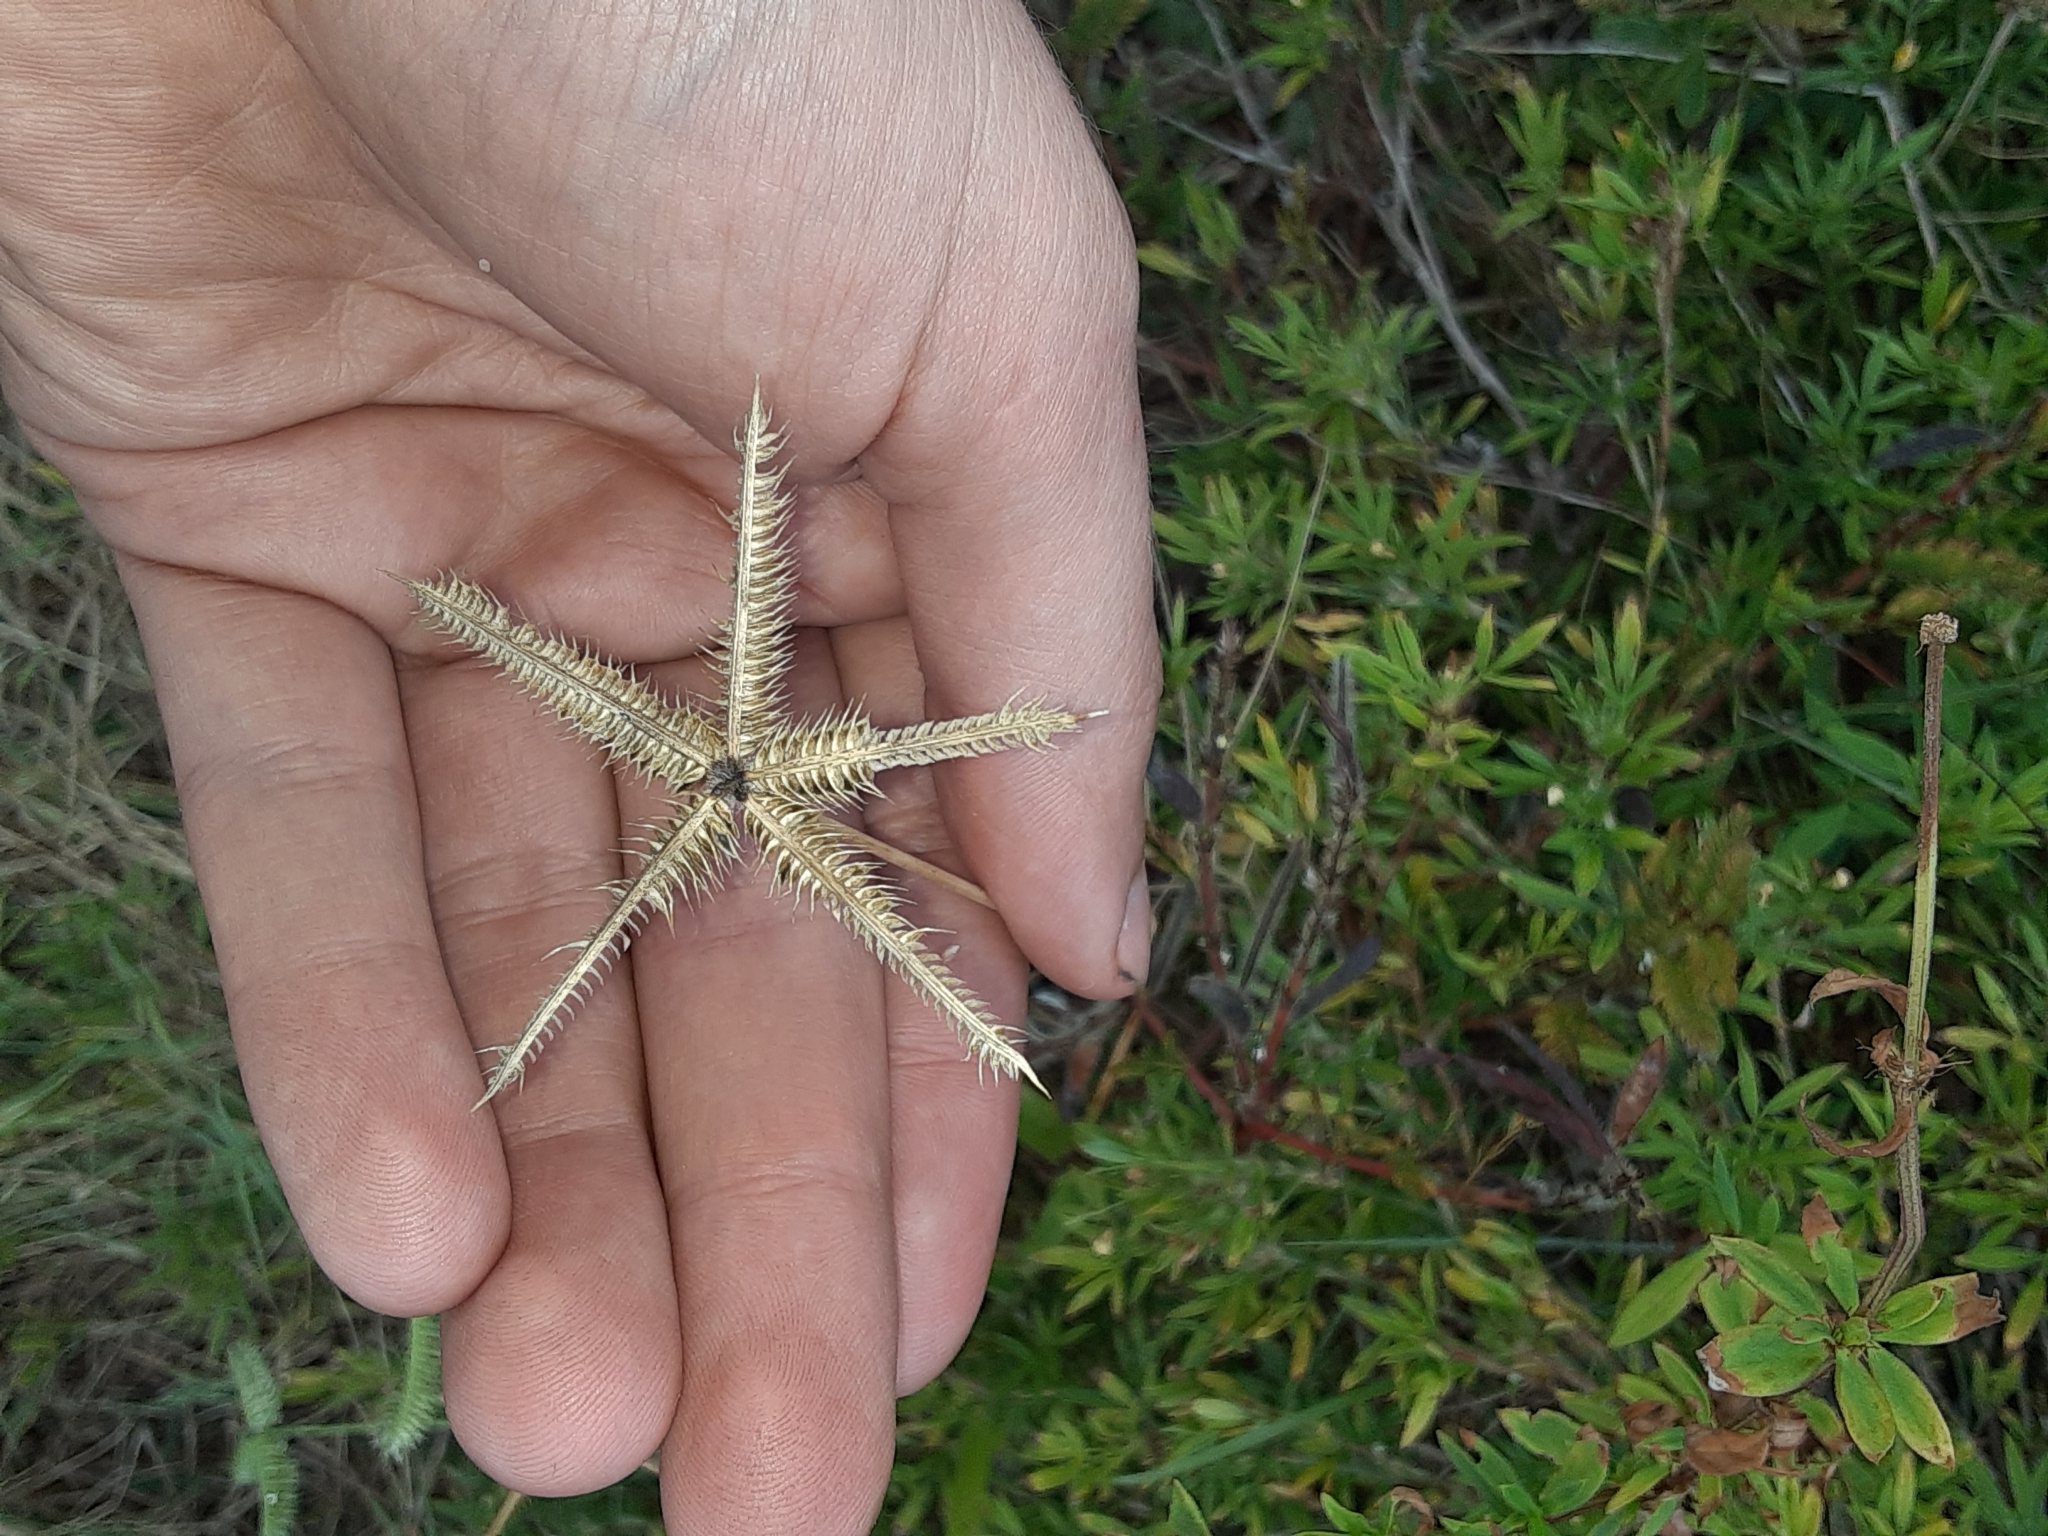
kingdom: Plantae
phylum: Tracheophyta
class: Liliopsida
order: Poales
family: Poaceae
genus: Dactyloctenium
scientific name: Dactyloctenium aegyptium
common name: Egyptian grass
